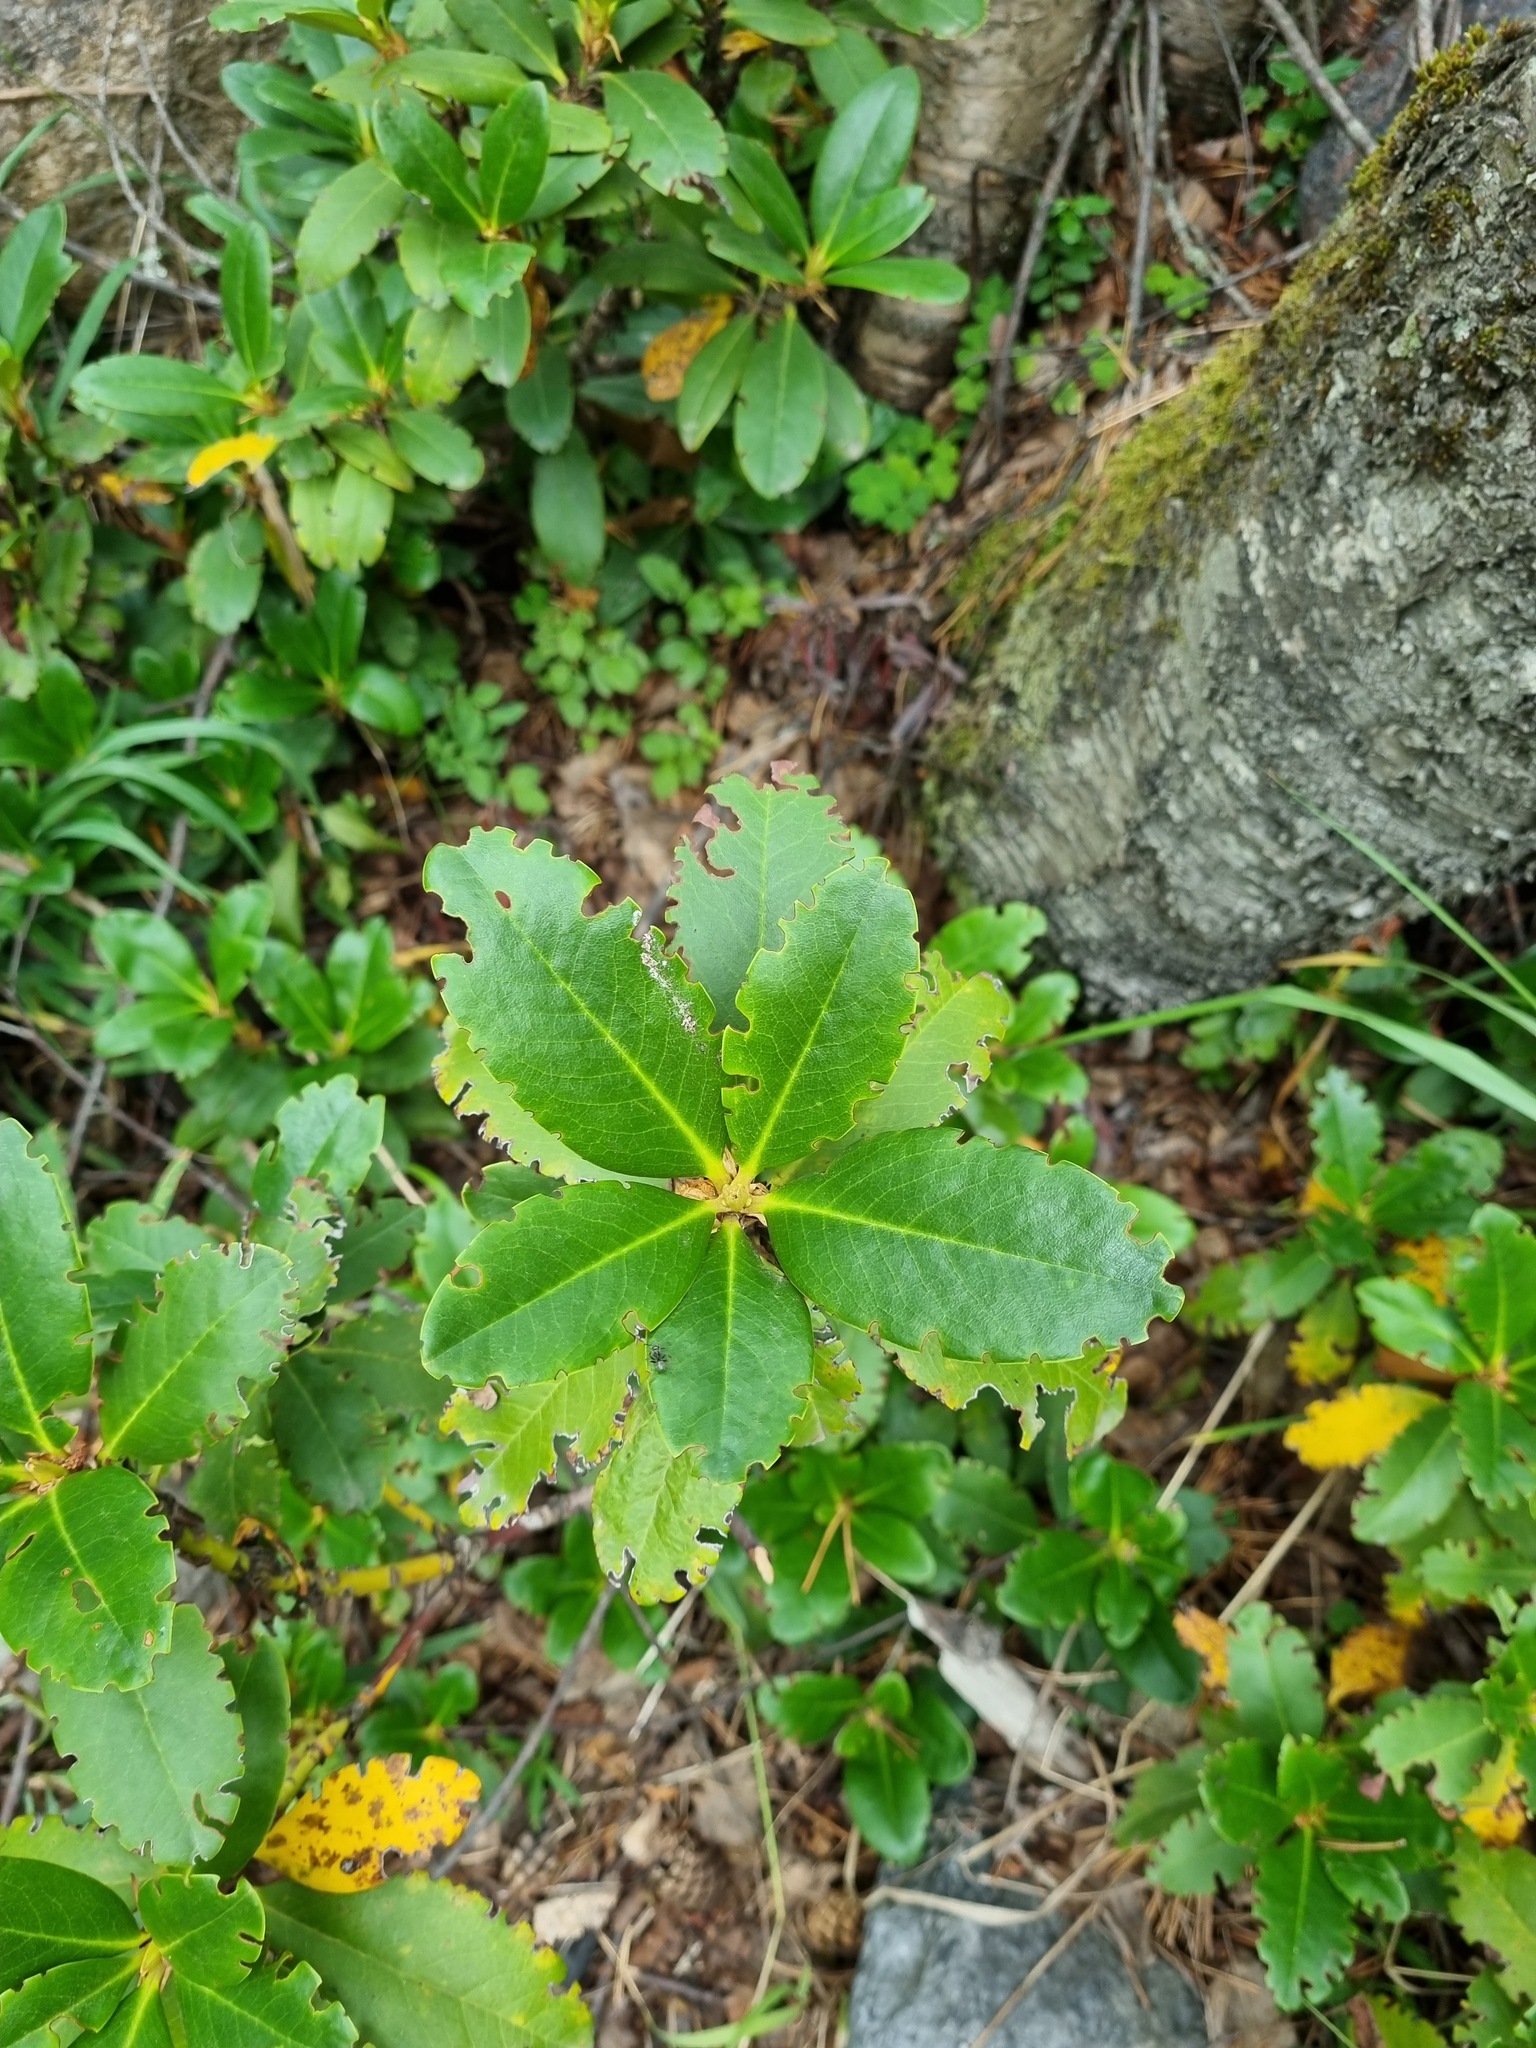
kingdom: Plantae
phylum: Tracheophyta
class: Magnoliopsida
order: Ericales
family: Ericaceae
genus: Rhododendron
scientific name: Rhododendron caucasicum
